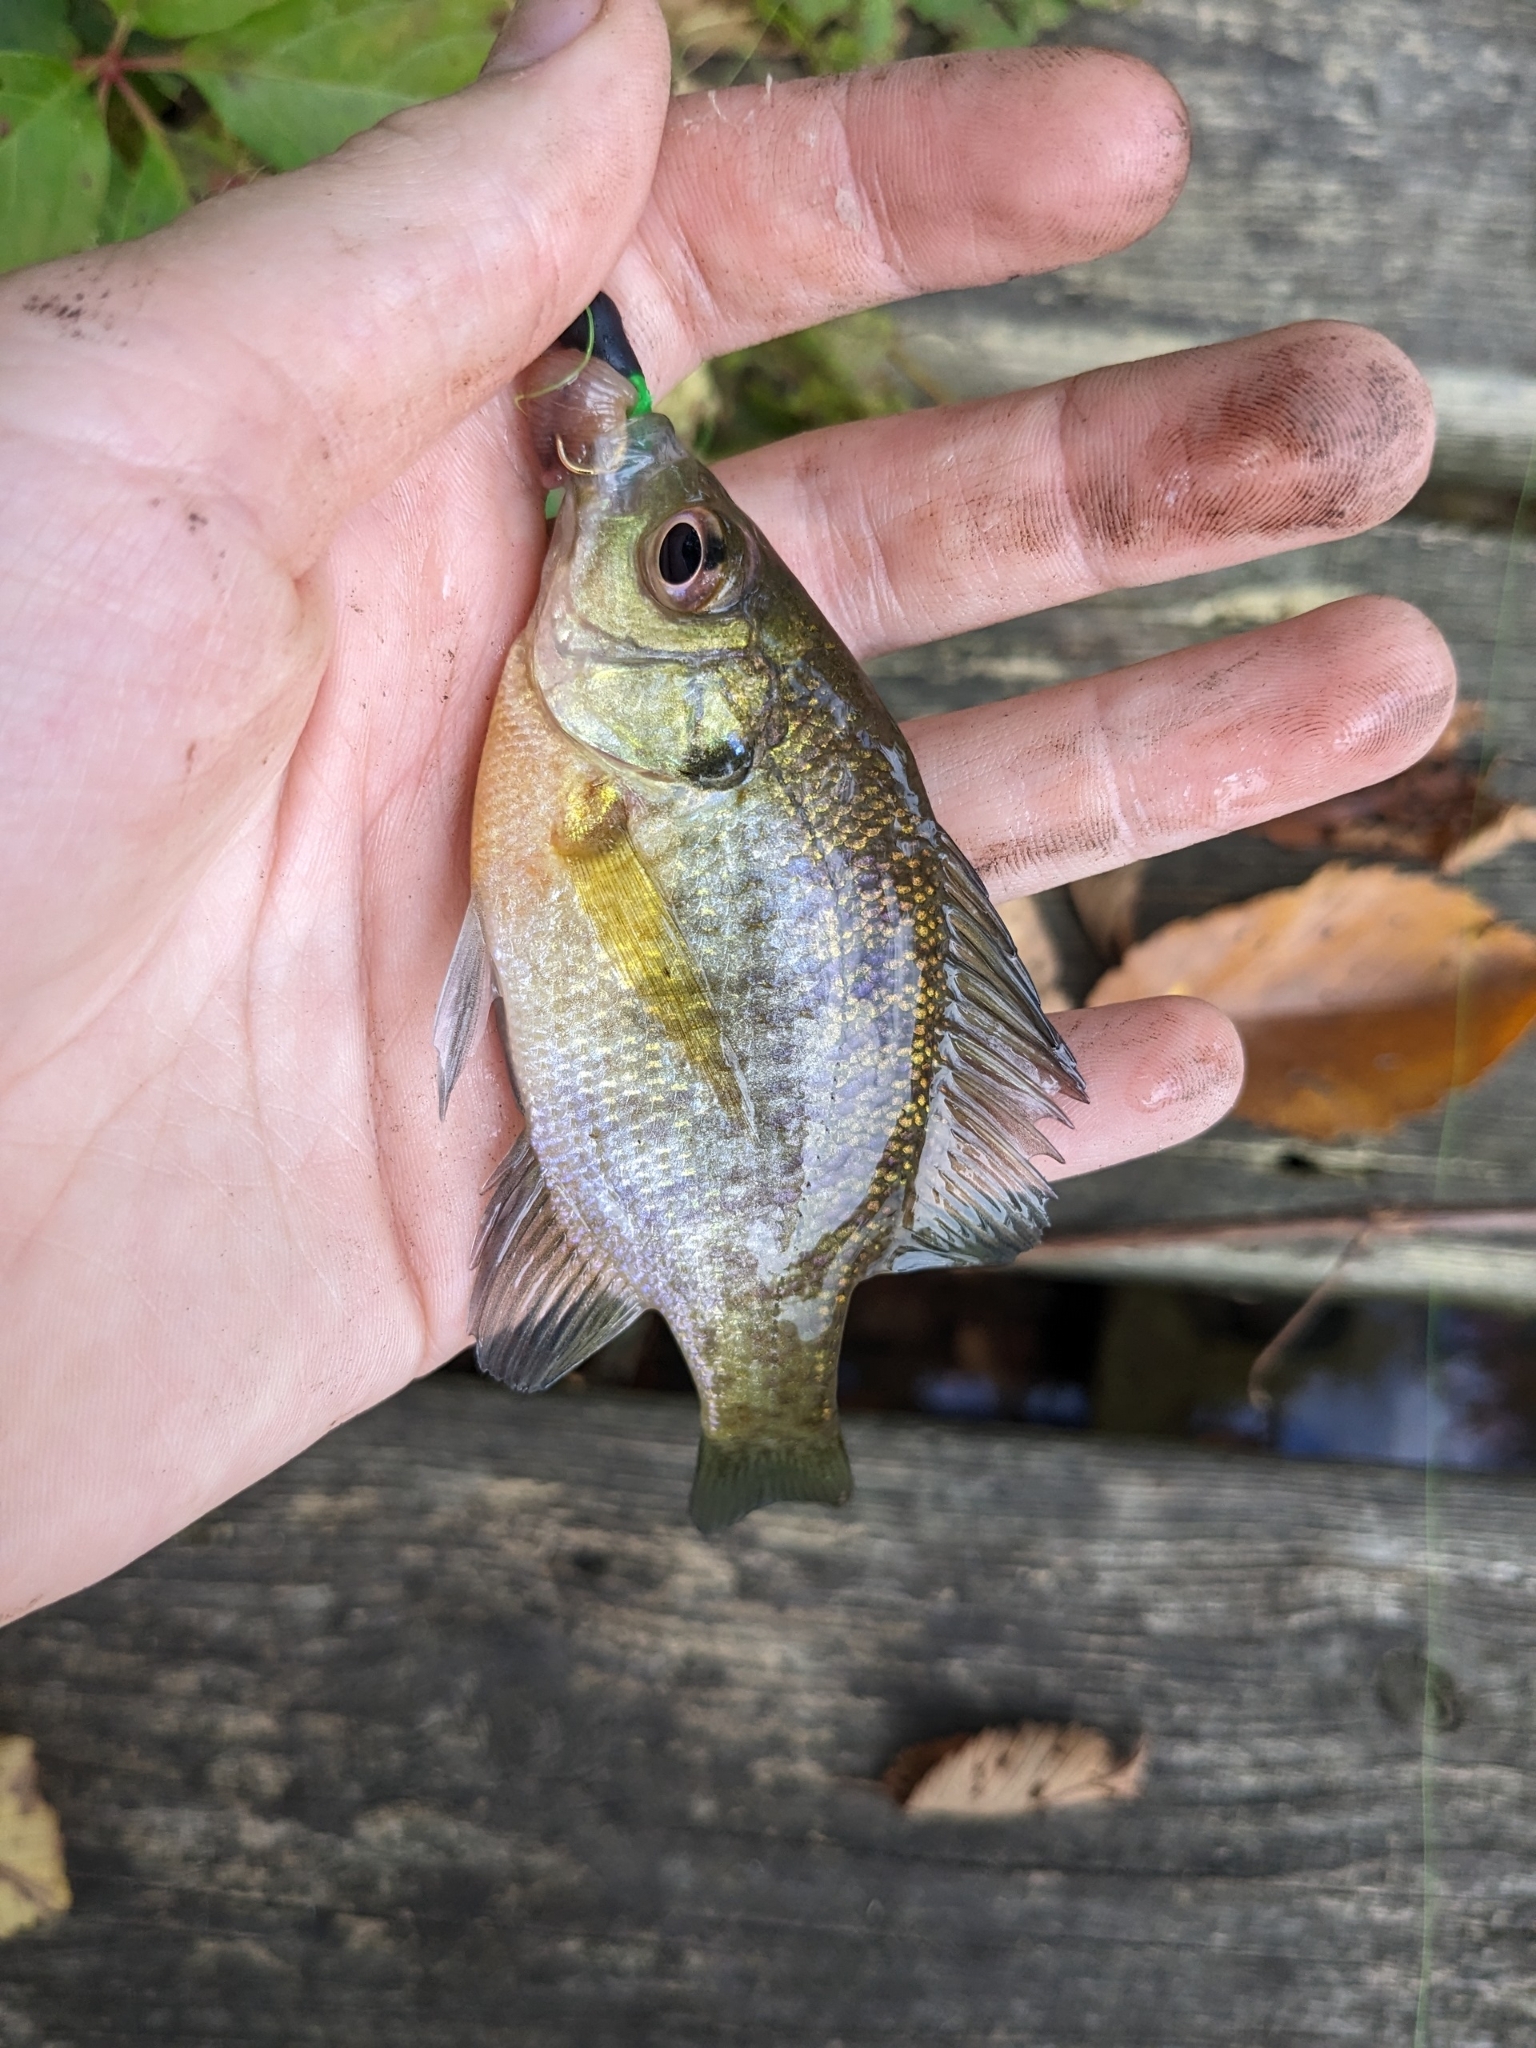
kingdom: Animalia
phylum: Chordata
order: Perciformes
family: Centrarchidae
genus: Lepomis
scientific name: Lepomis macrochirus
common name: Bluegill
